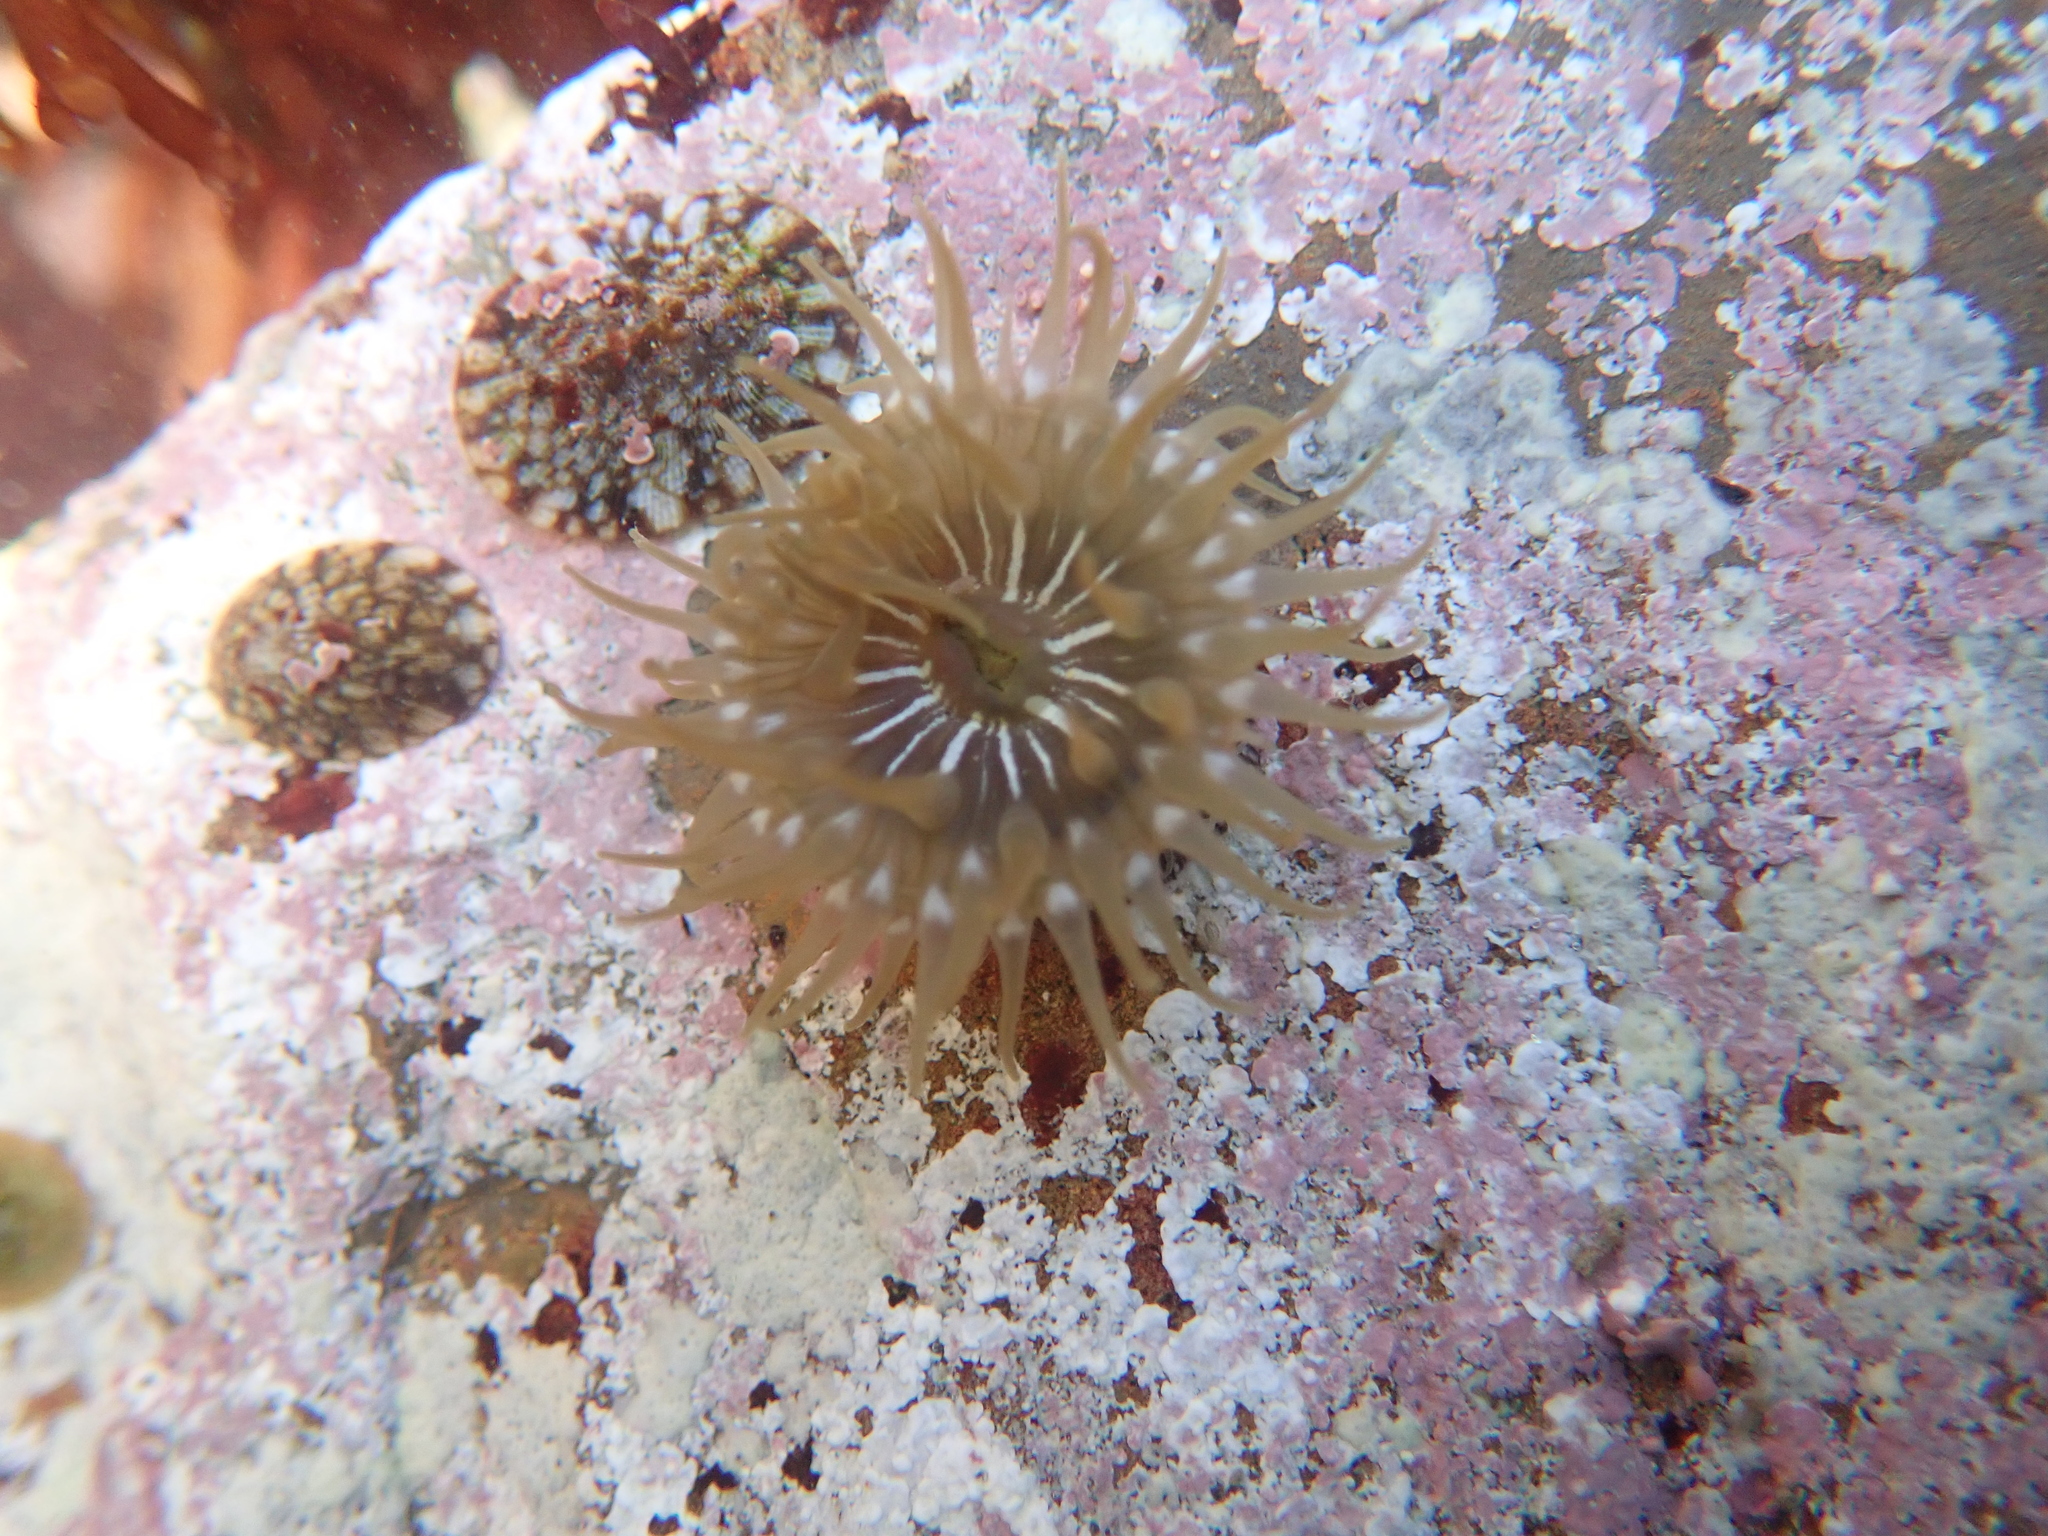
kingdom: Animalia
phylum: Cnidaria
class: Anthozoa
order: Actiniaria
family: Actiniidae
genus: Epiactis
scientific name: Epiactis prolifera
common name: Brooding anemone
